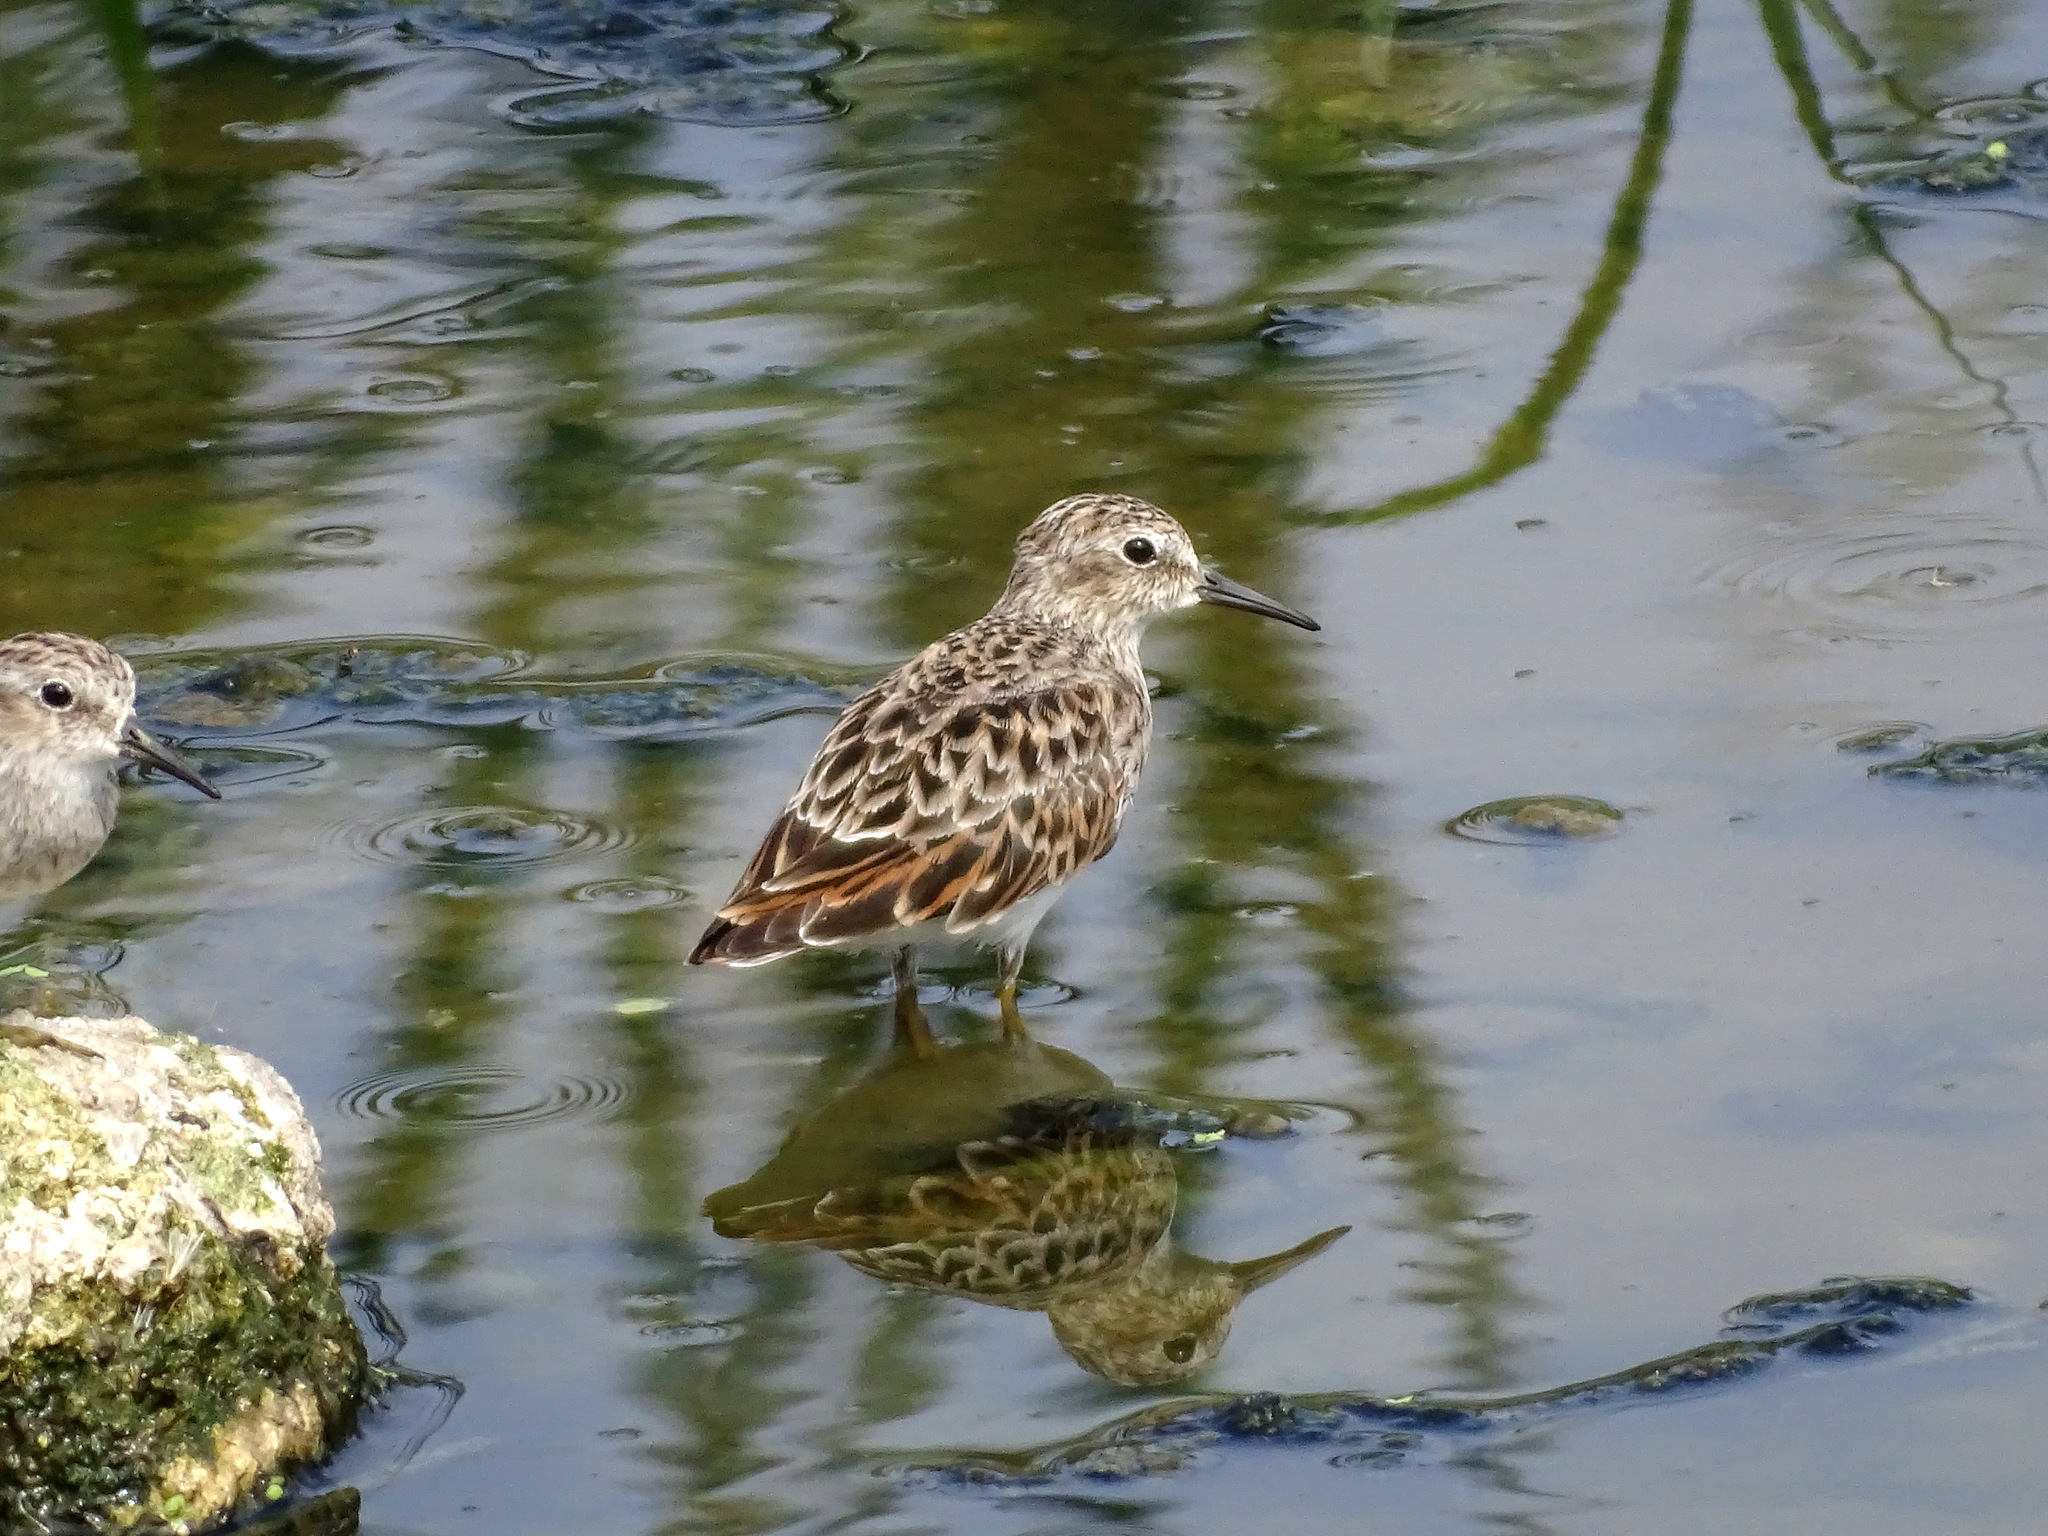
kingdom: Animalia
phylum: Chordata
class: Aves
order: Charadriiformes
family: Scolopacidae
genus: Calidris
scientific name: Calidris minutilla
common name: Least sandpiper
